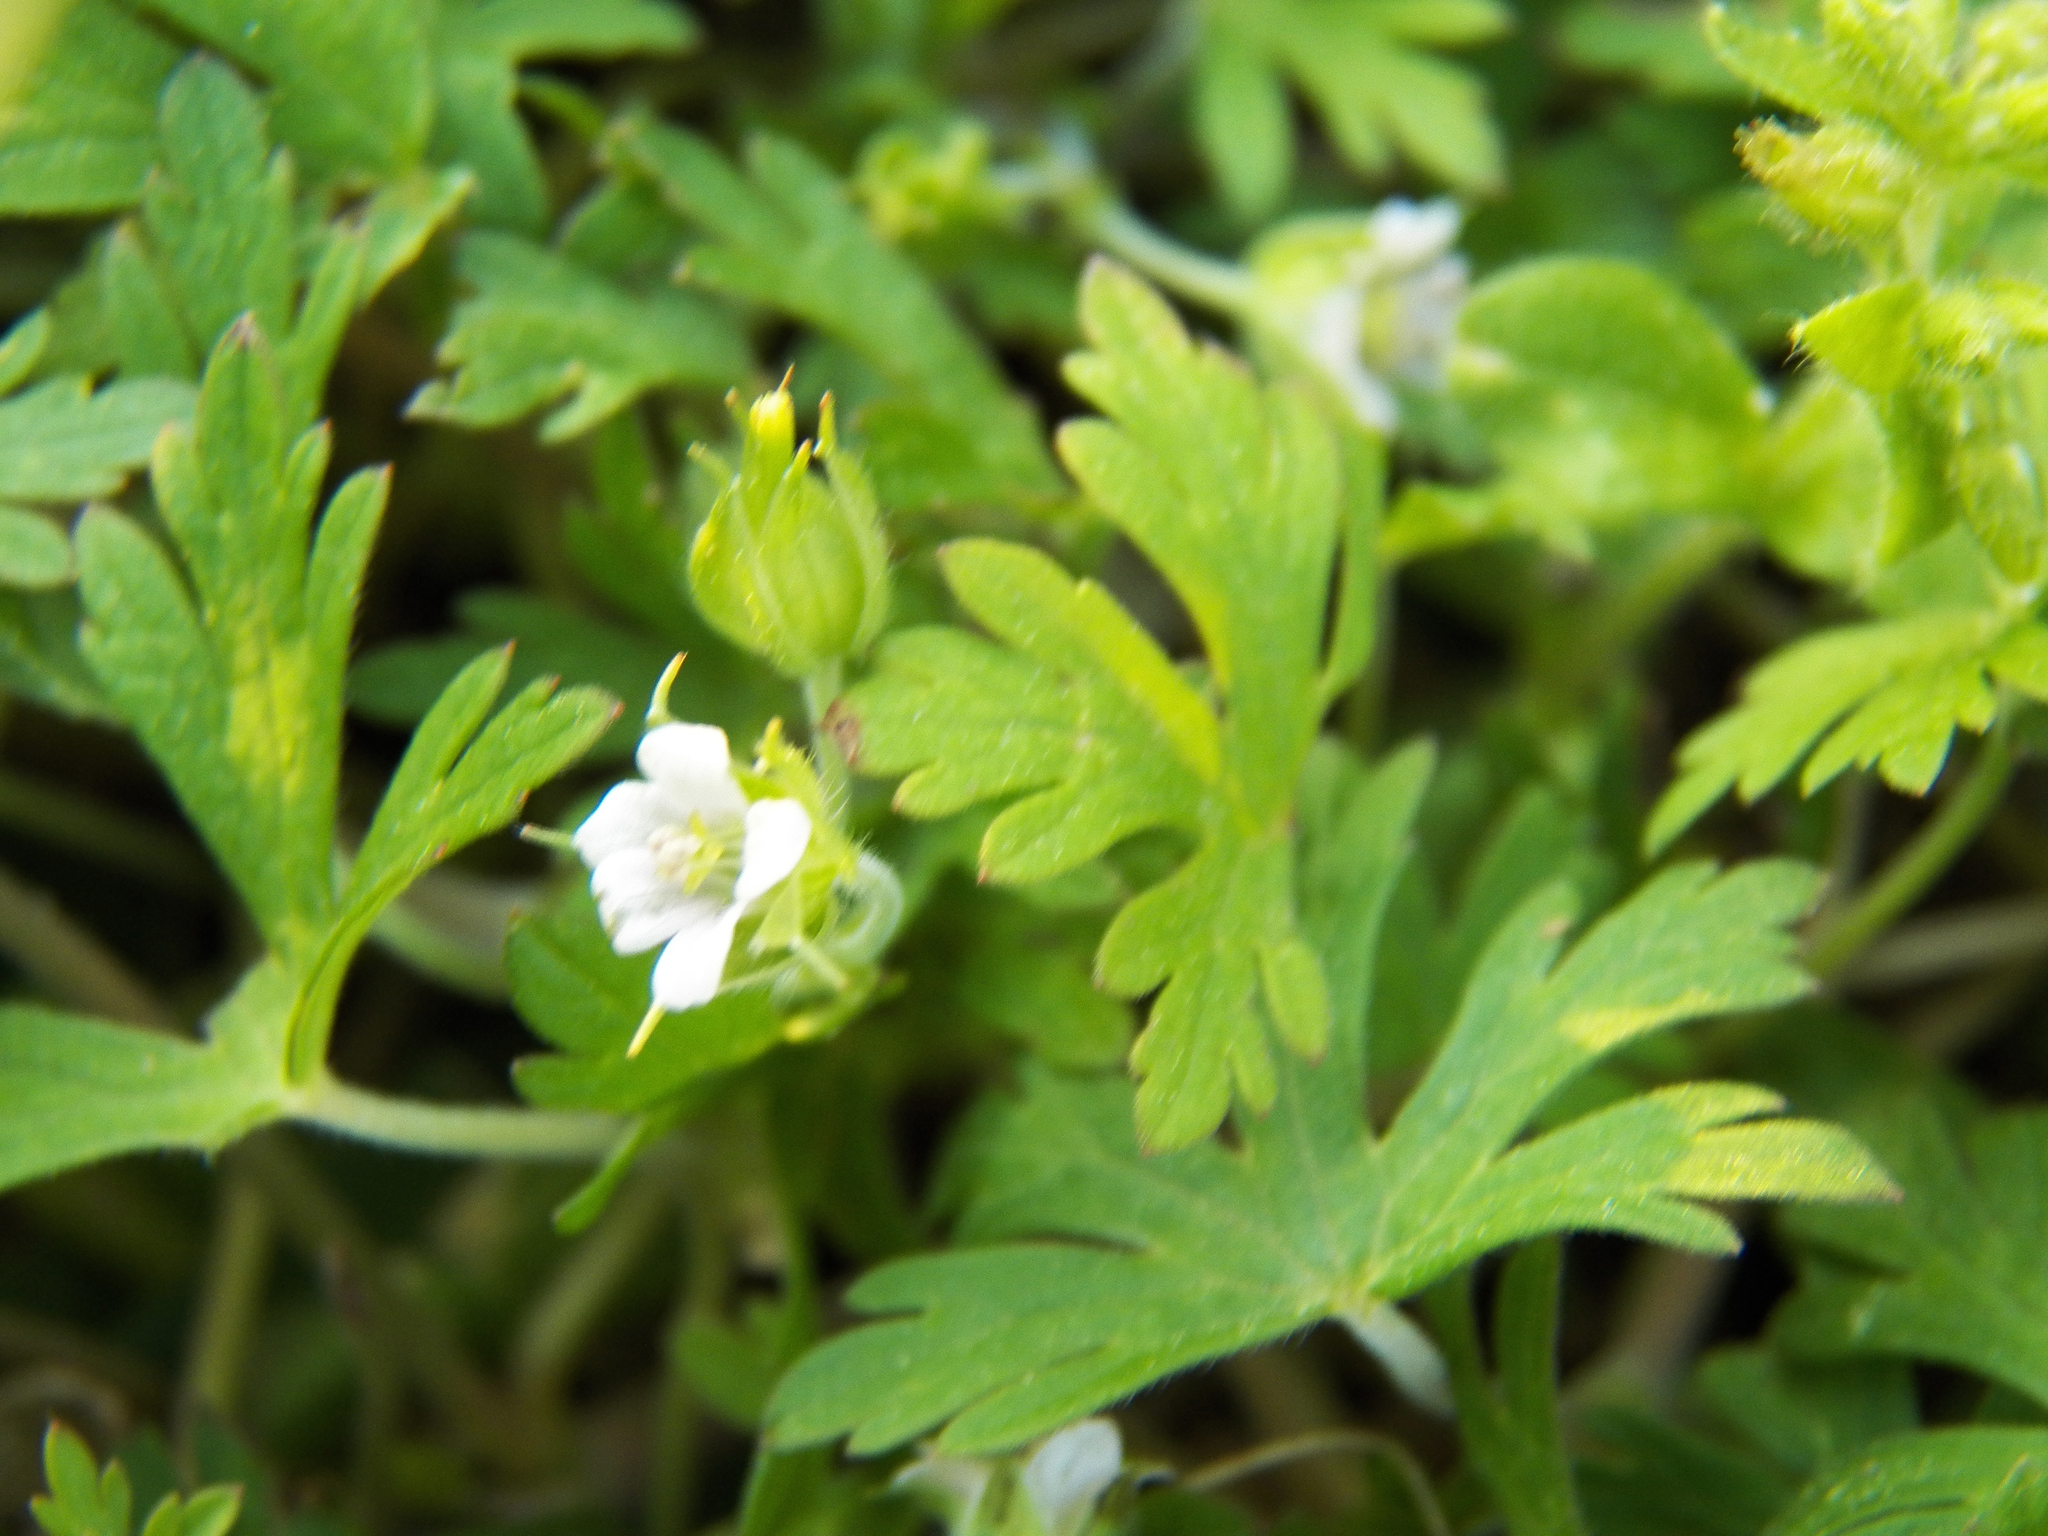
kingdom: Plantae
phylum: Tracheophyta
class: Magnoliopsida
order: Geraniales
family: Geraniaceae
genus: Geranium
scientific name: Geranium carolinianum
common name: Carolina crane's-bill
